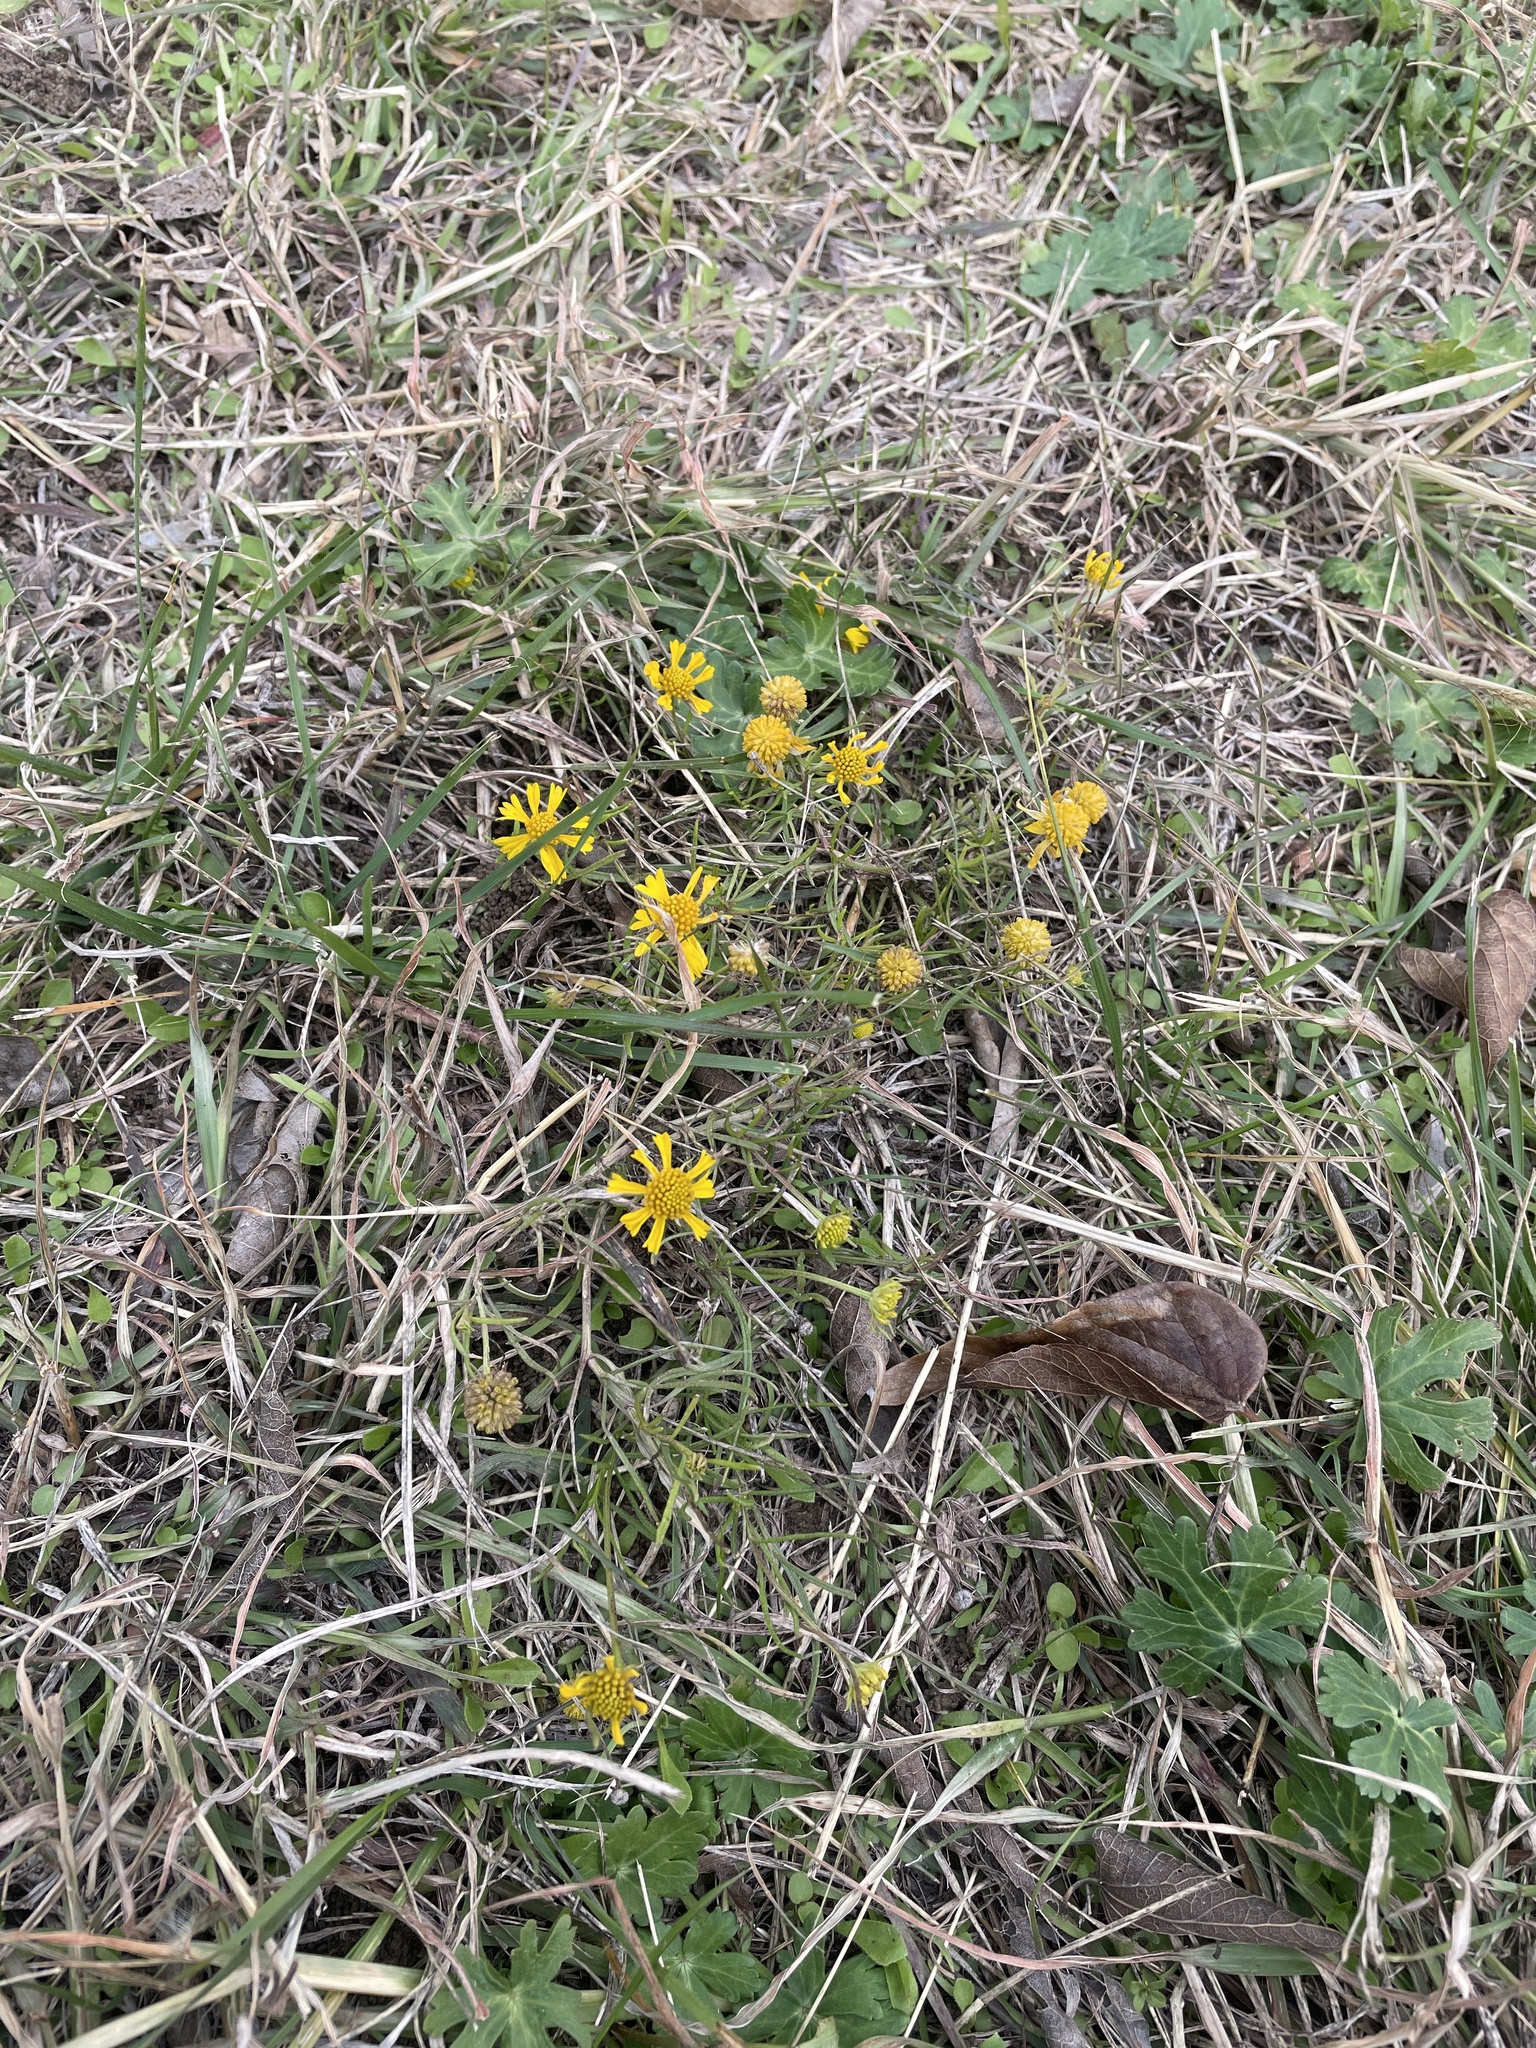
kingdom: Plantae
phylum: Tracheophyta
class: Magnoliopsida
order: Asterales
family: Asteraceae
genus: Helenium
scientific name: Helenium amarum
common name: Bitter sneezeweed
